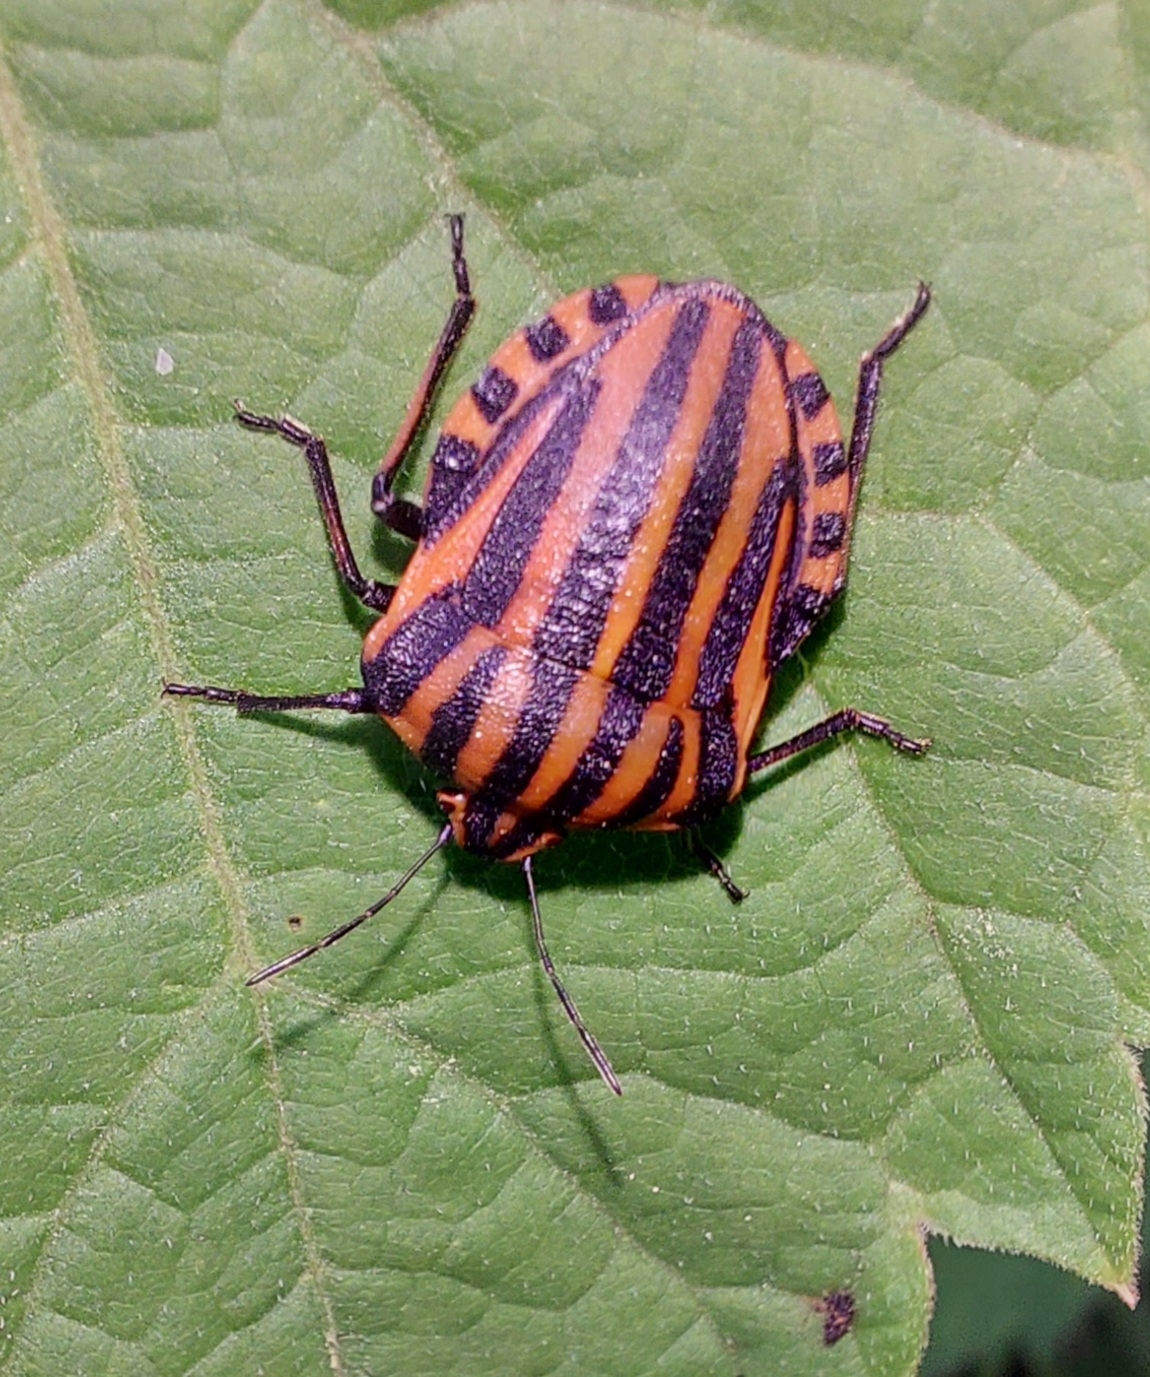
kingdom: Animalia
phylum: Arthropoda
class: Insecta
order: Hemiptera
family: Pentatomidae
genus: Graphosoma
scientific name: Graphosoma italicum
